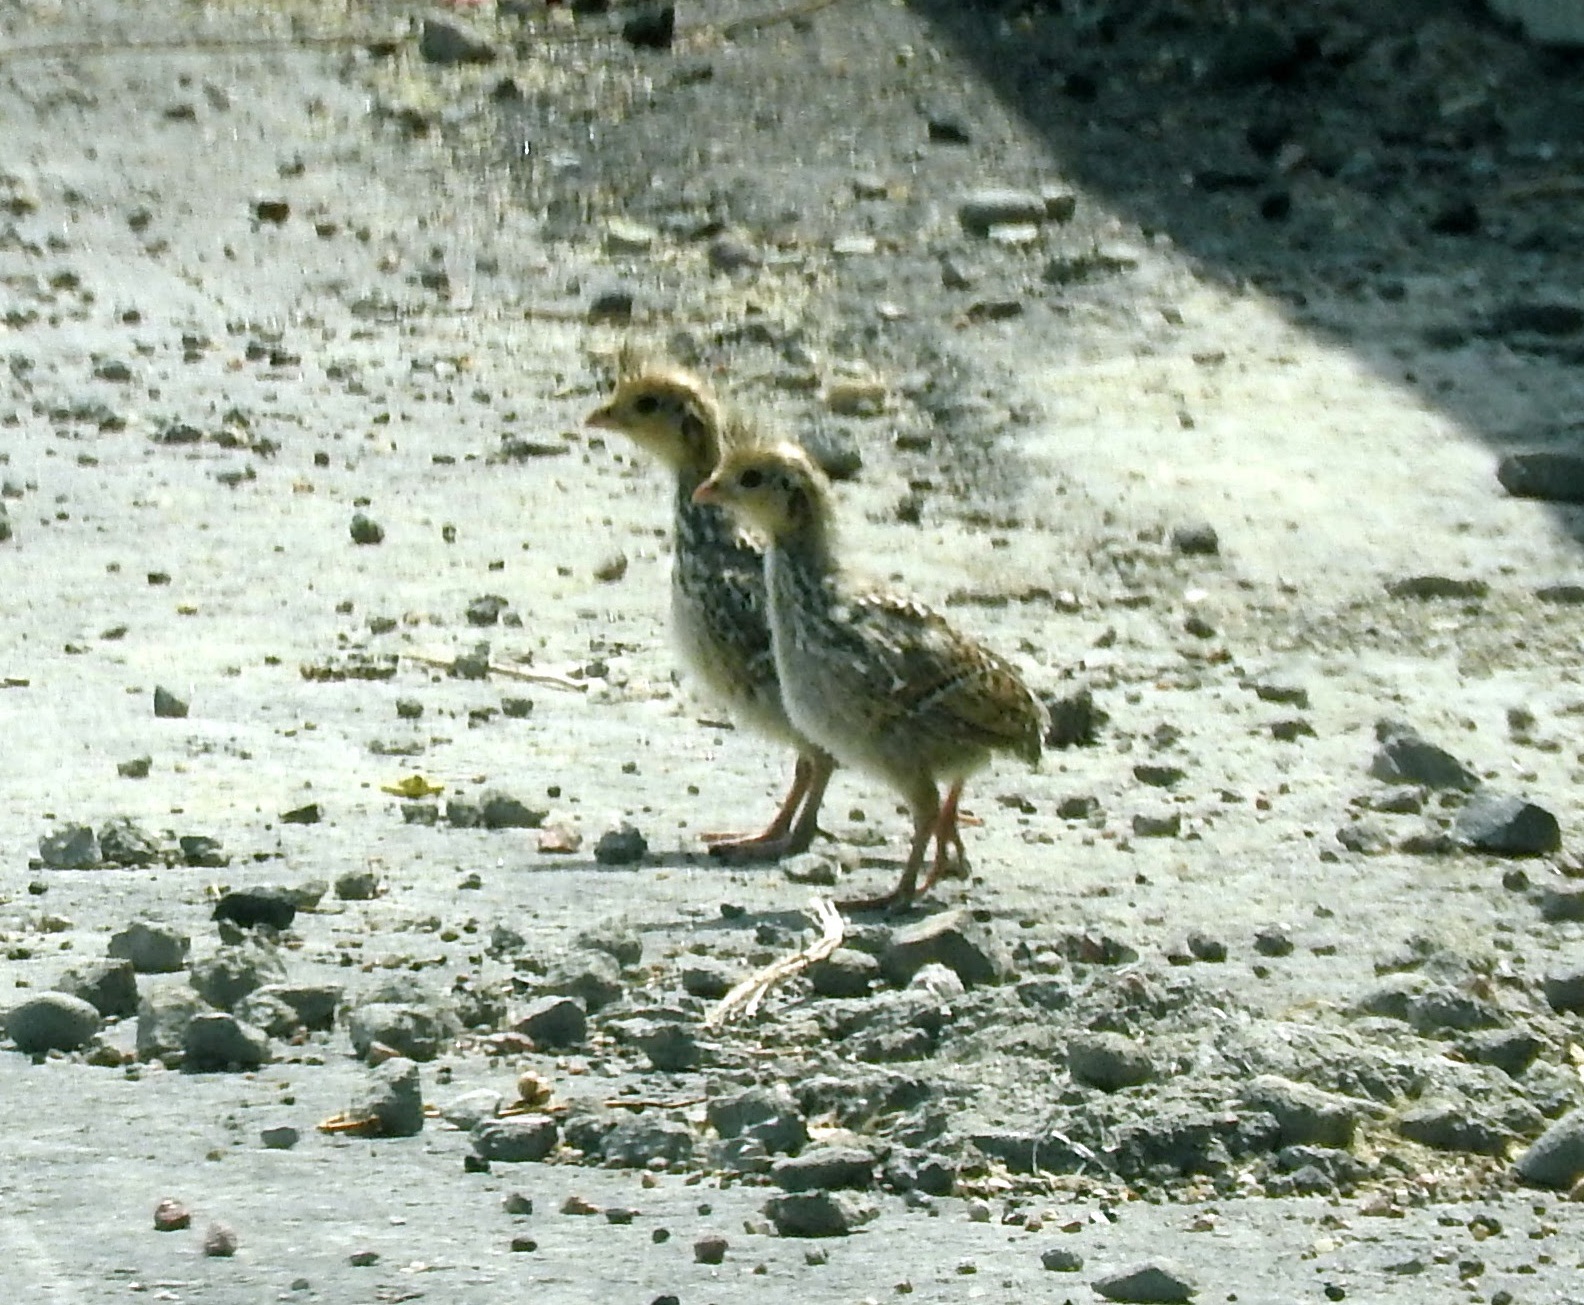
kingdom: Animalia
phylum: Chordata
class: Aves
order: Galliformes
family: Odontophoridae
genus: Callipepla
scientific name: Callipepla squamata
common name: Scaled quail
